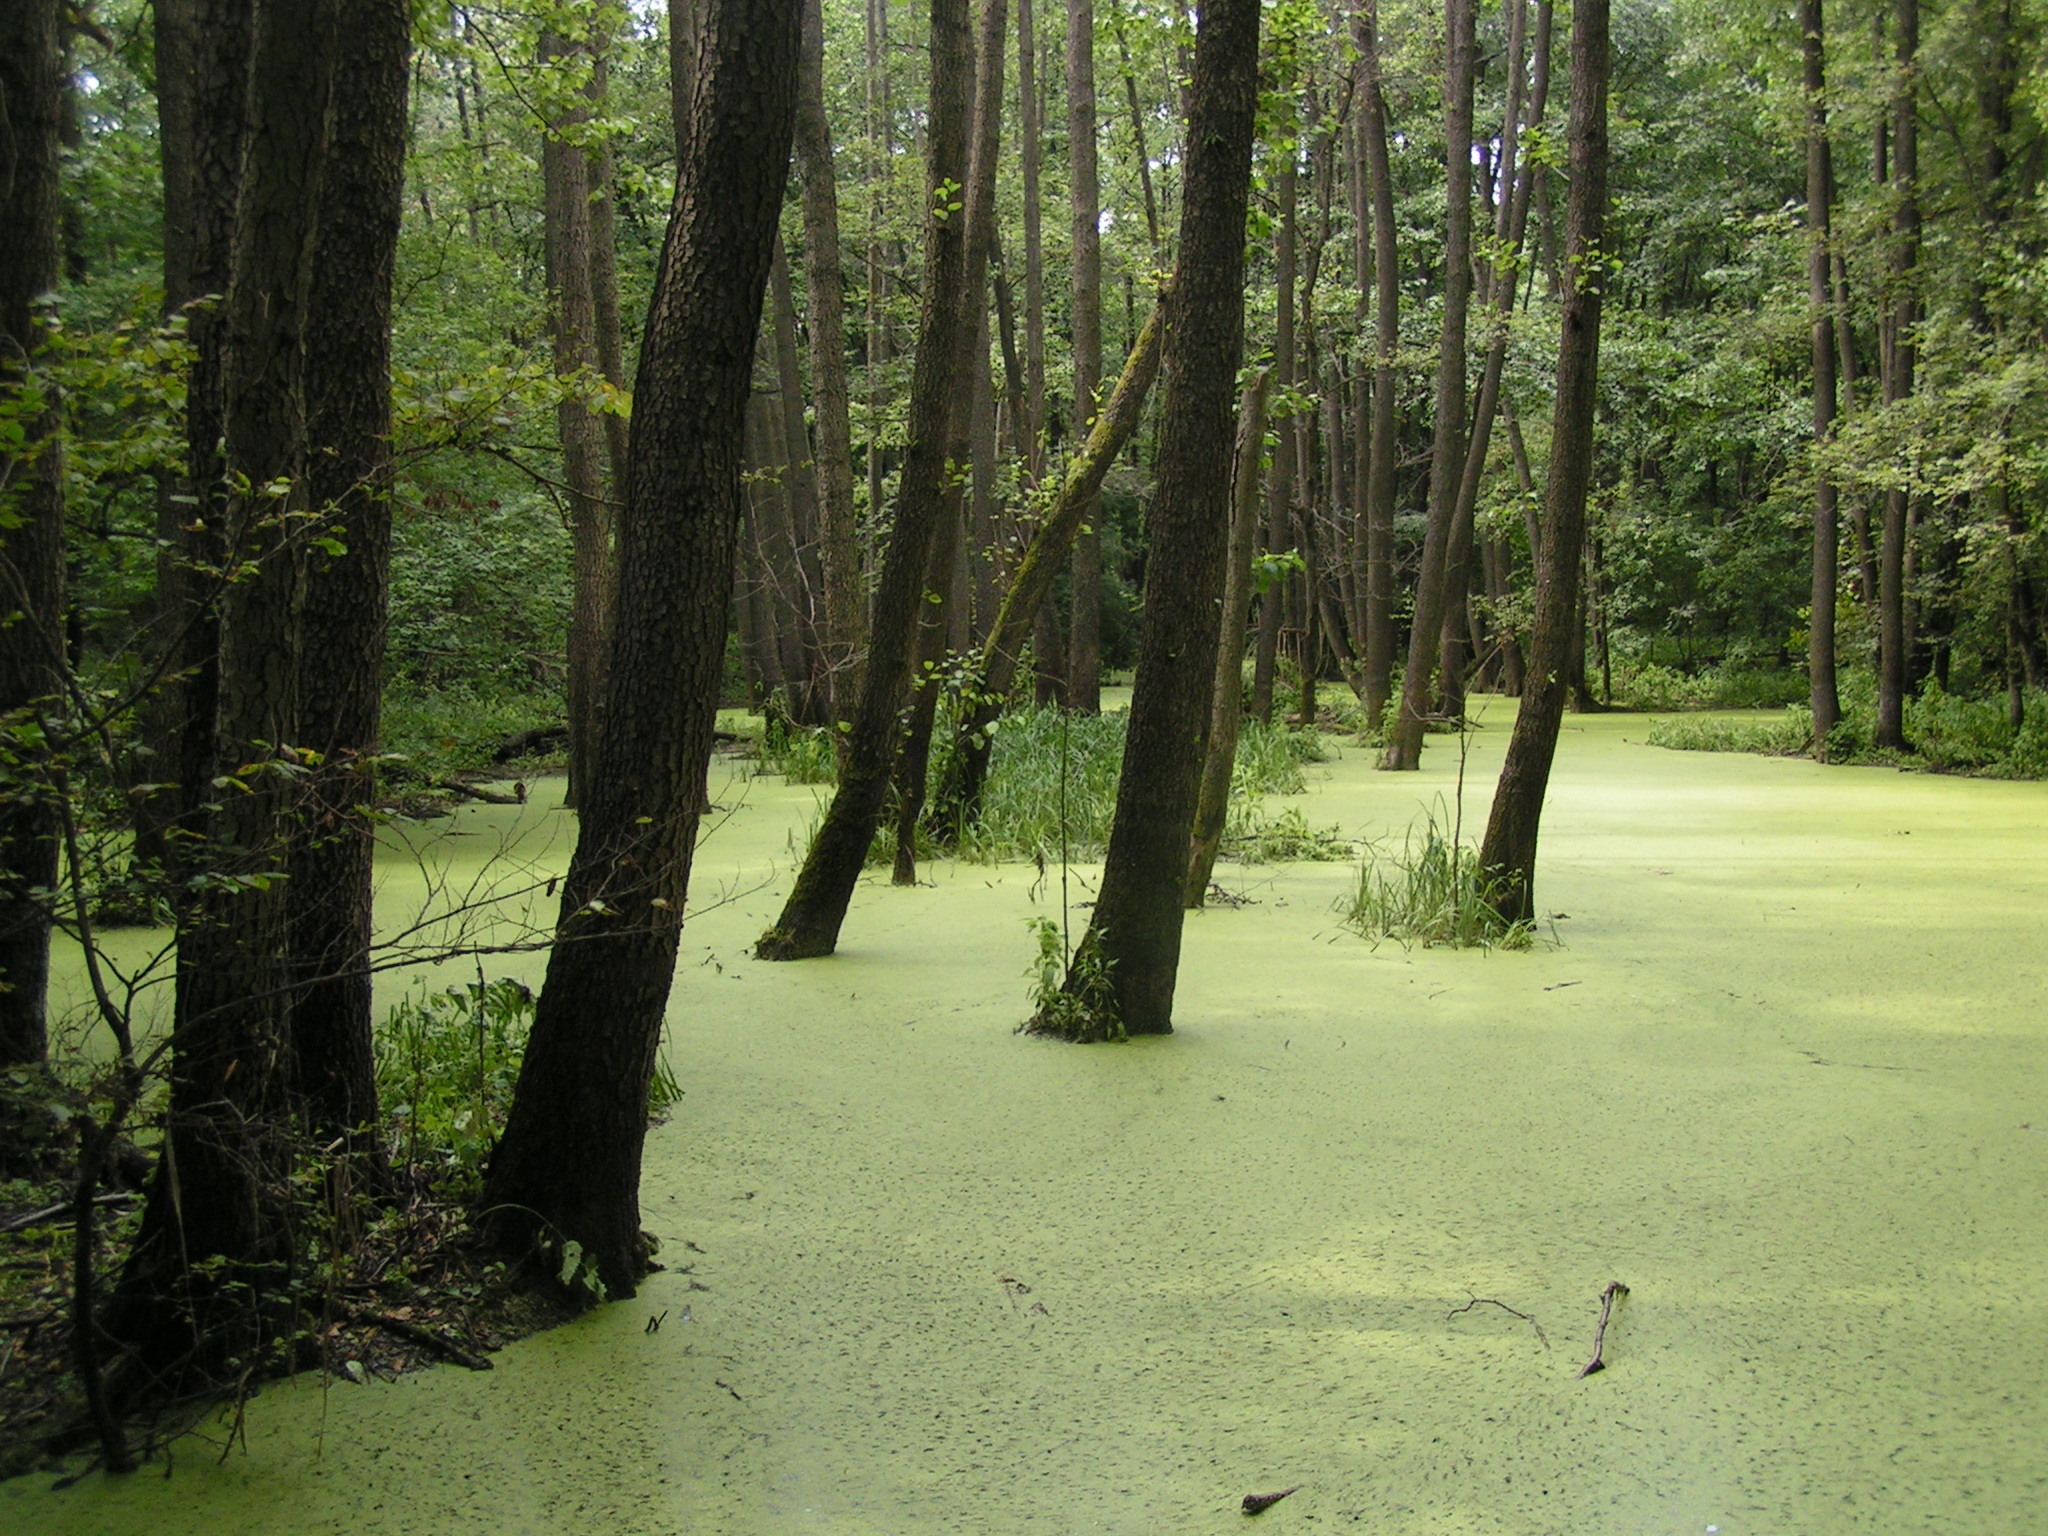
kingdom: Plantae
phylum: Tracheophyta
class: Magnoliopsida
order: Fagales
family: Betulaceae
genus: Alnus
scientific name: Alnus glutinosa
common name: Black alder
